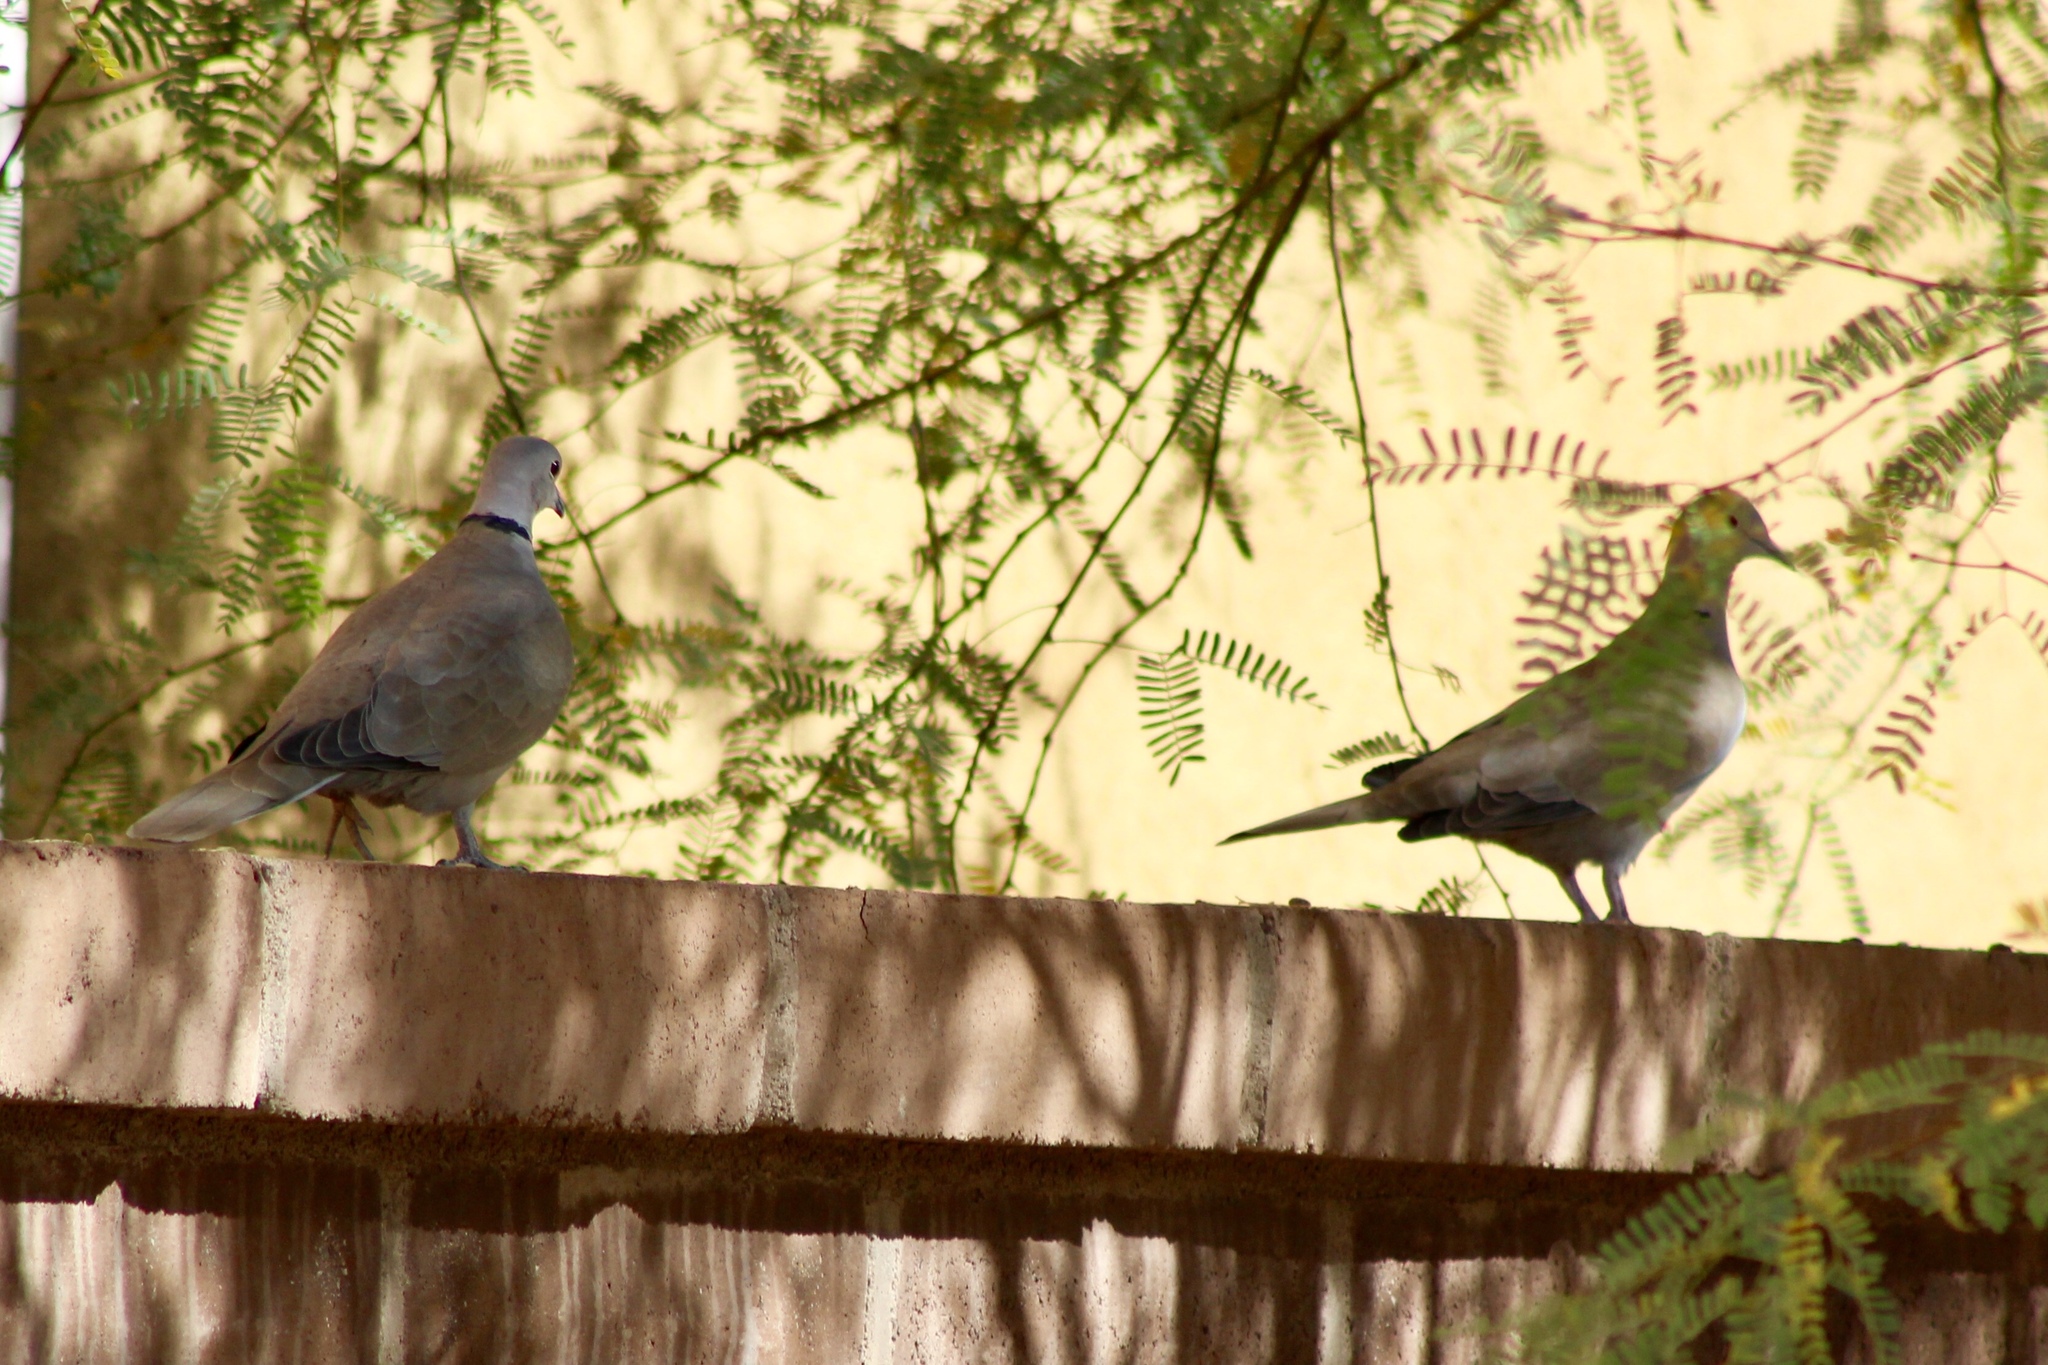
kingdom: Animalia
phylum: Chordata
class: Aves
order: Columbiformes
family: Columbidae
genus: Streptopelia
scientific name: Streptopelia decaocto
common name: Eurasian collared dove
